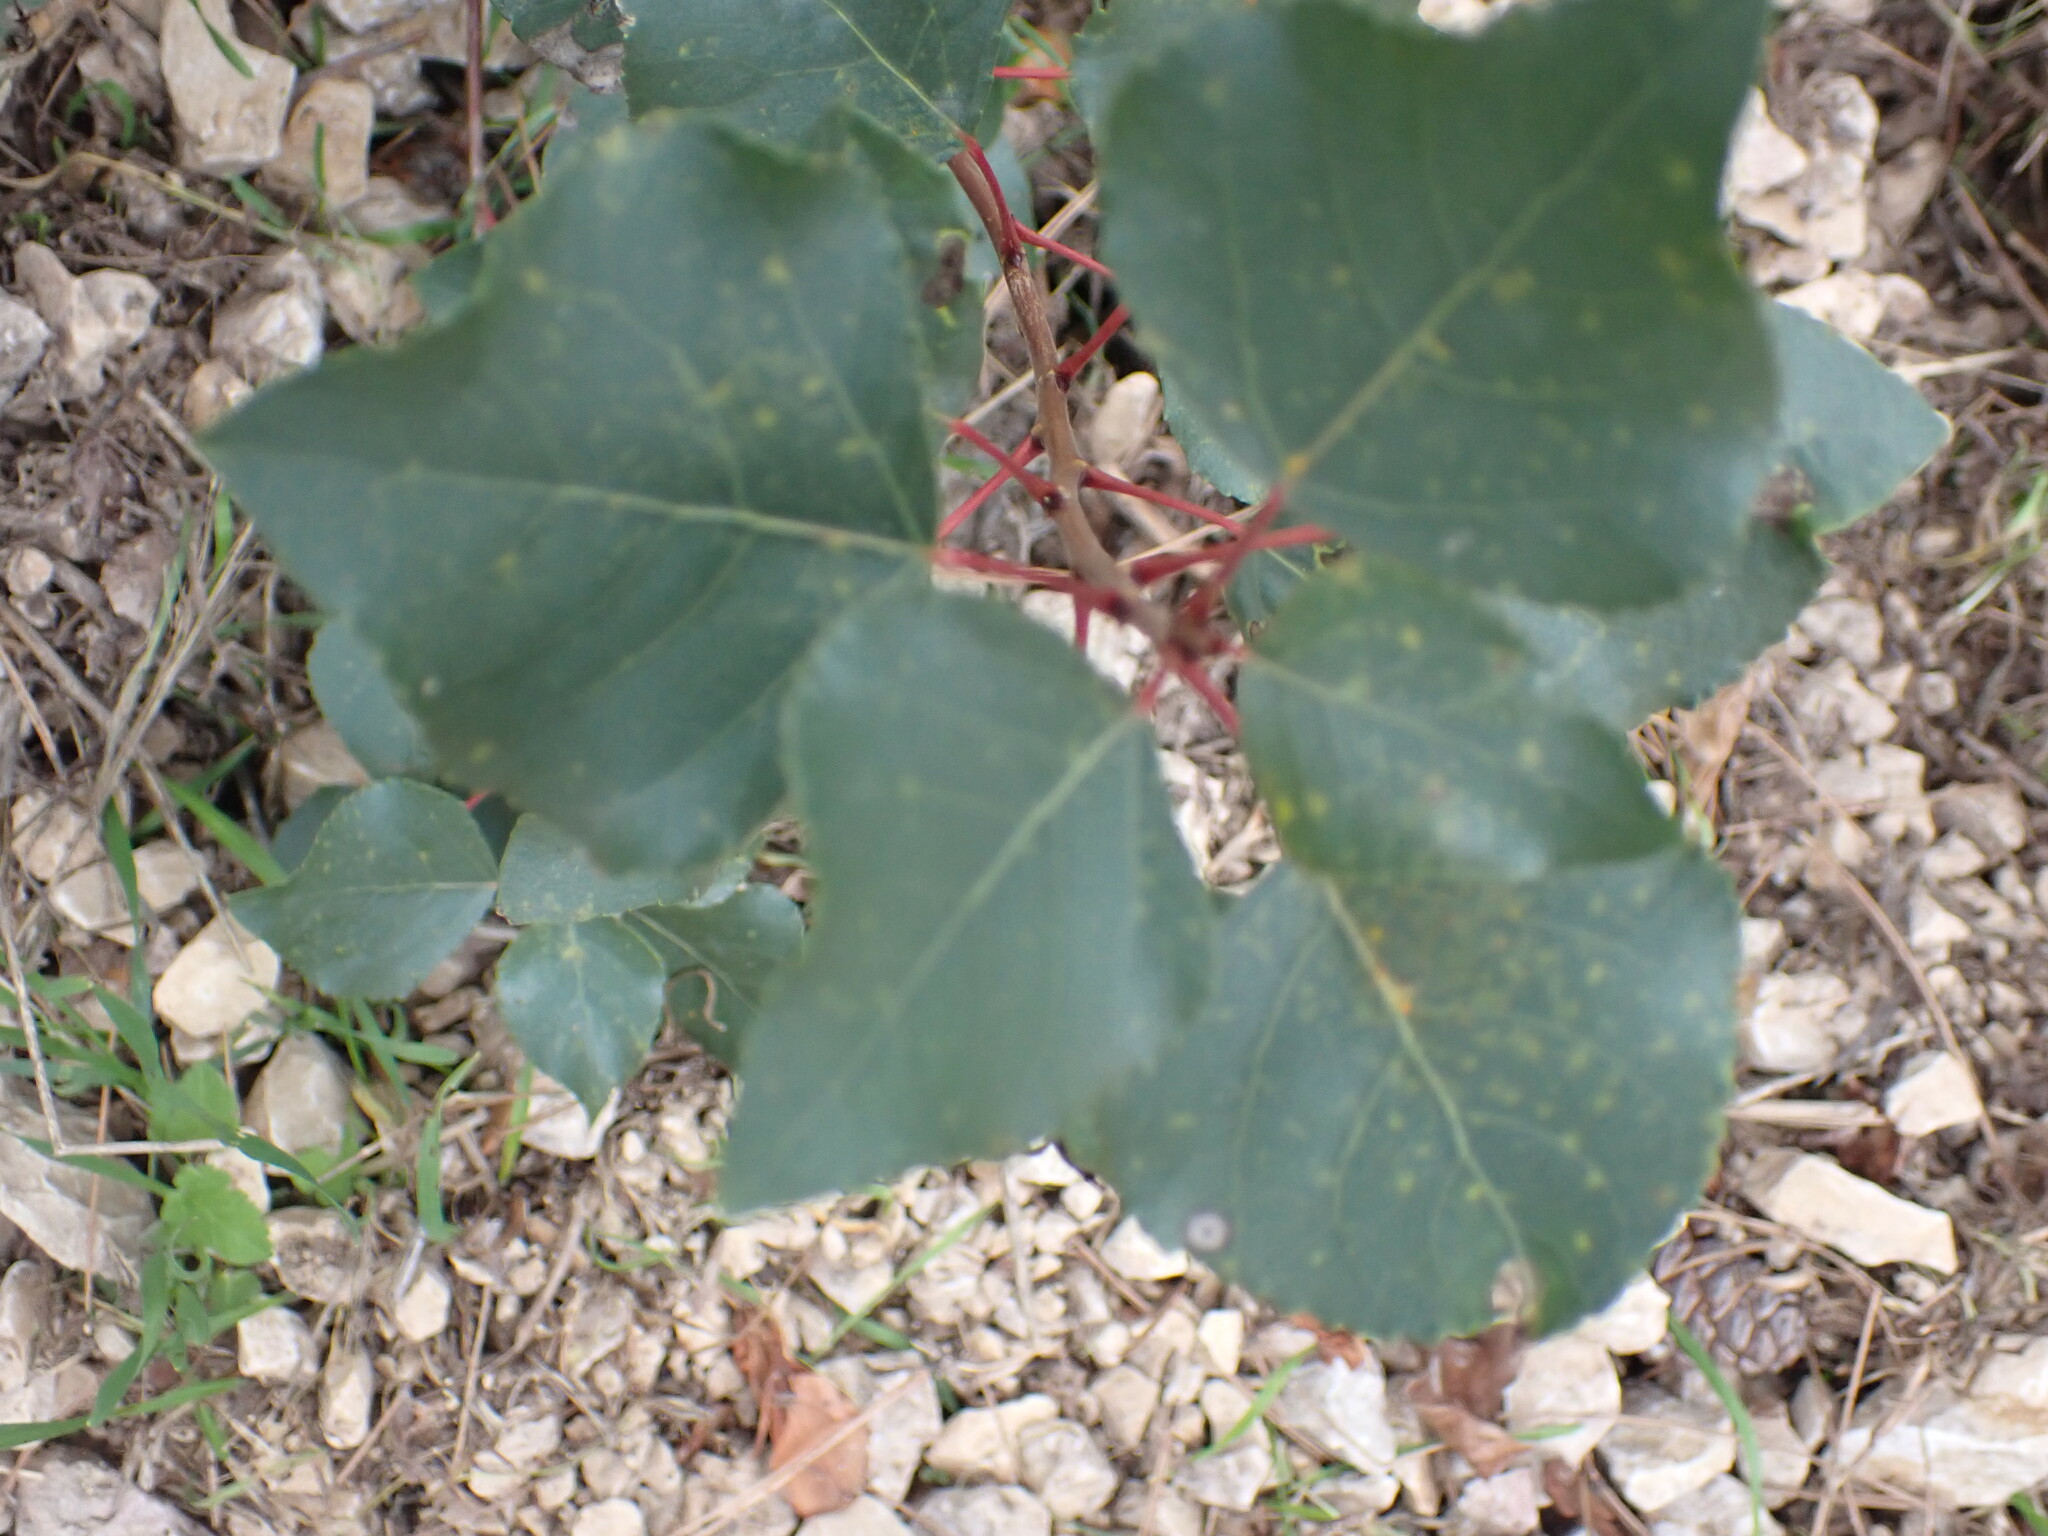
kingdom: Plantae
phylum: Tracheophyta
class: Magnoliopsida
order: Malpighiales
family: Salicaceae
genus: Populus
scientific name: Populus nigra
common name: Black poplar
